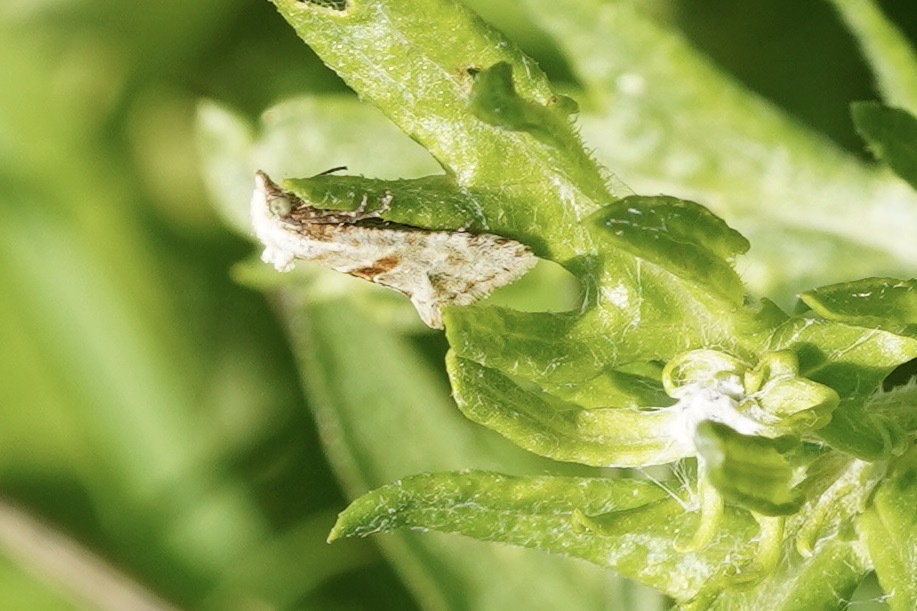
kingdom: Animalia
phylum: Arthropoda
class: Insecta
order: Lepidoptera
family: Tortricidae
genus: Cochylimorpha
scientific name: Cochylimorpha straminea
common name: Straw conch
